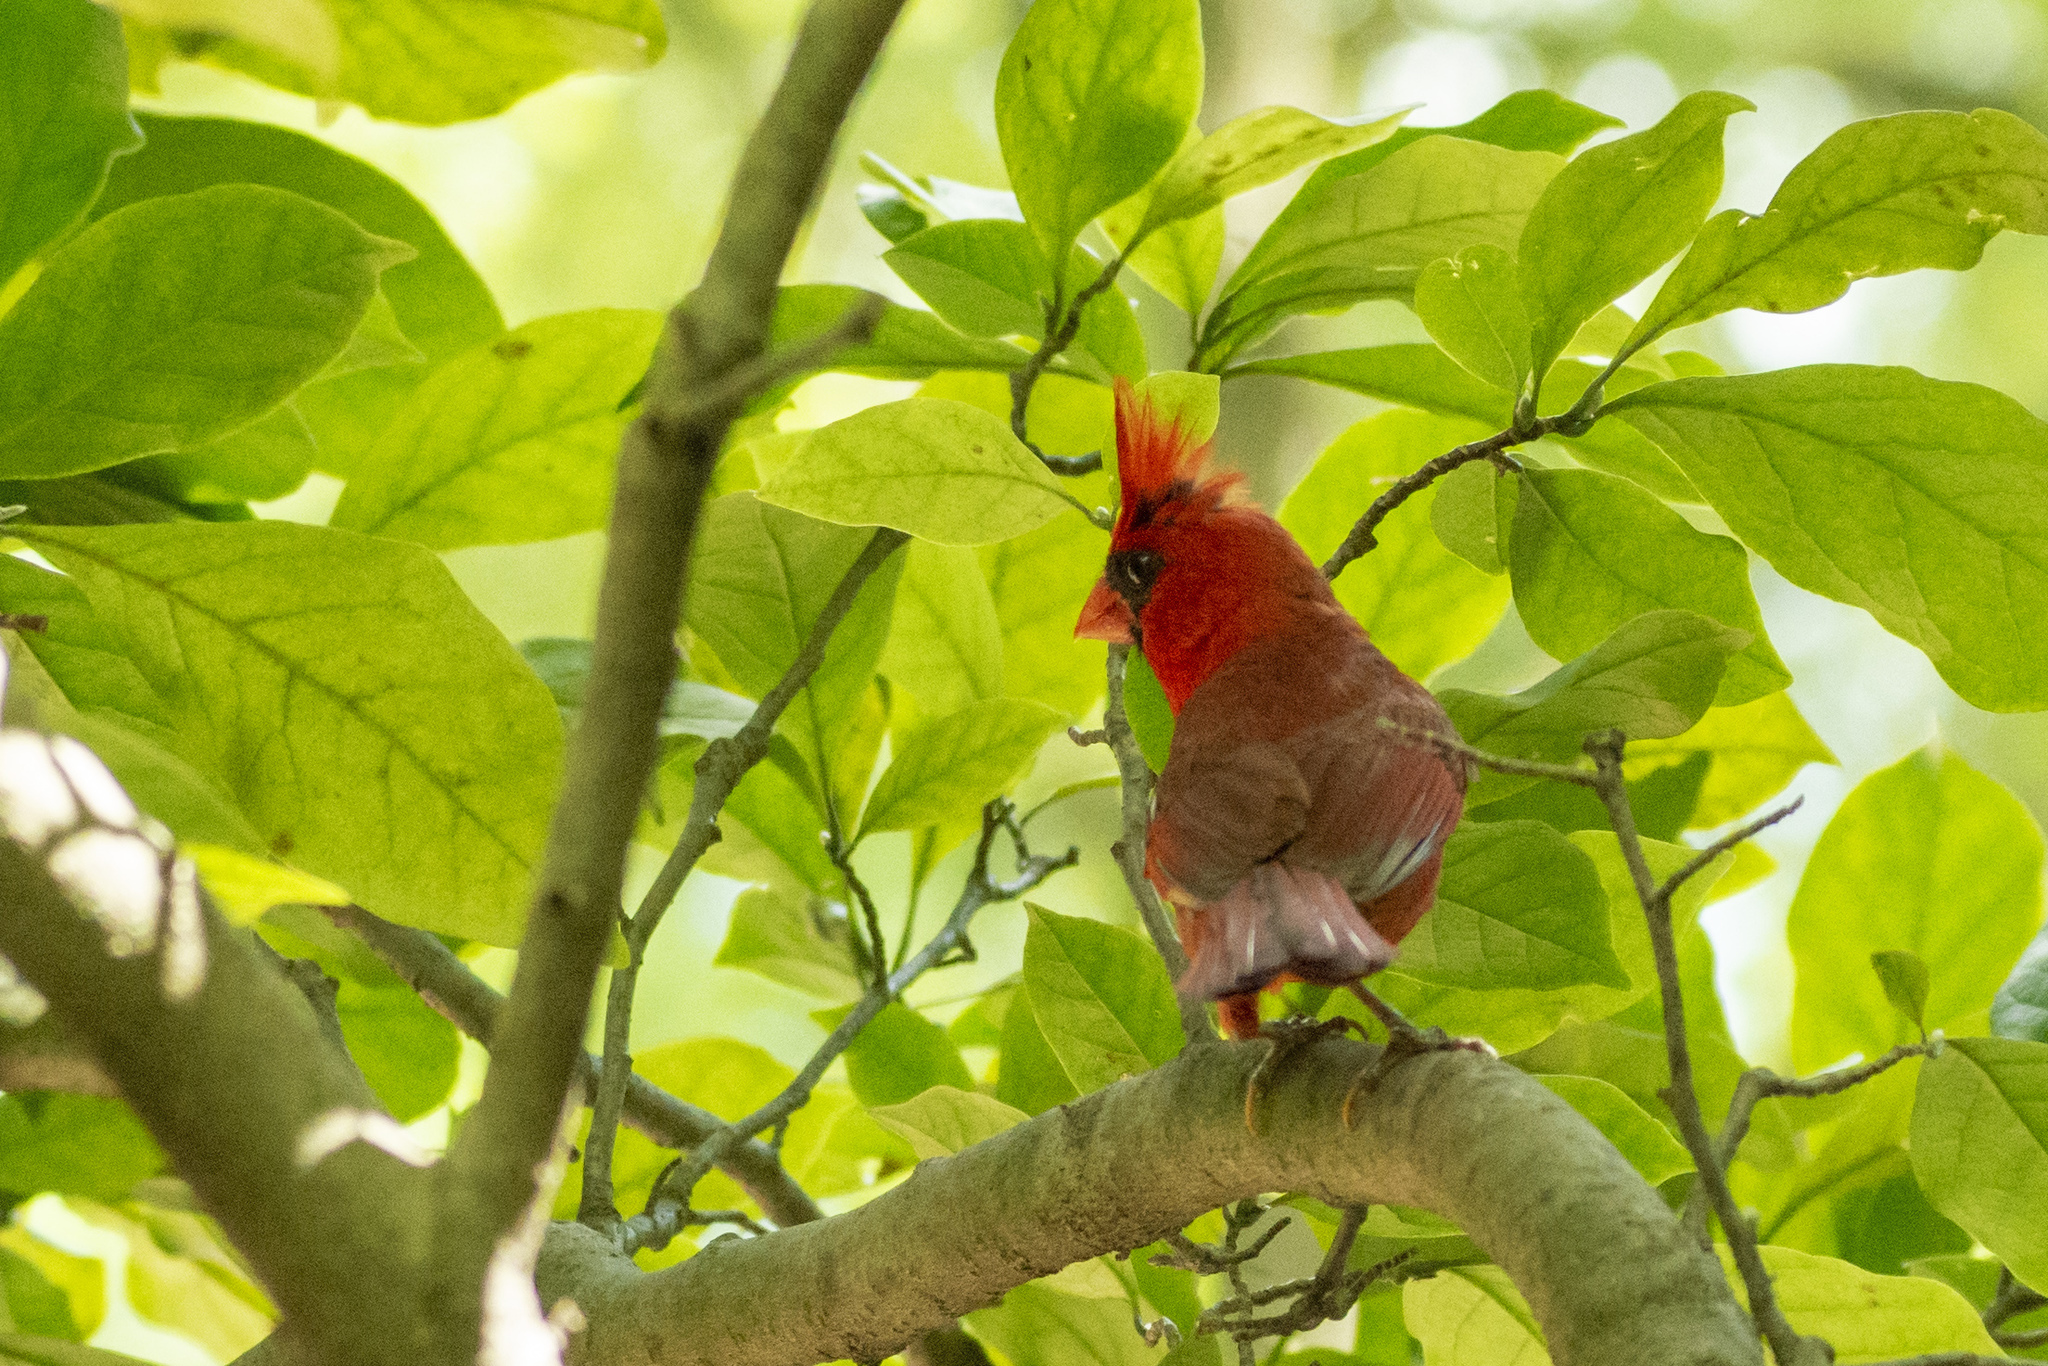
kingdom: Animalia
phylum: Chordata
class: Aves
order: Passeriformes
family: Cardinalidae
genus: Cardinalis
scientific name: Cardinalis cardinalis
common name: Northern cardinal
